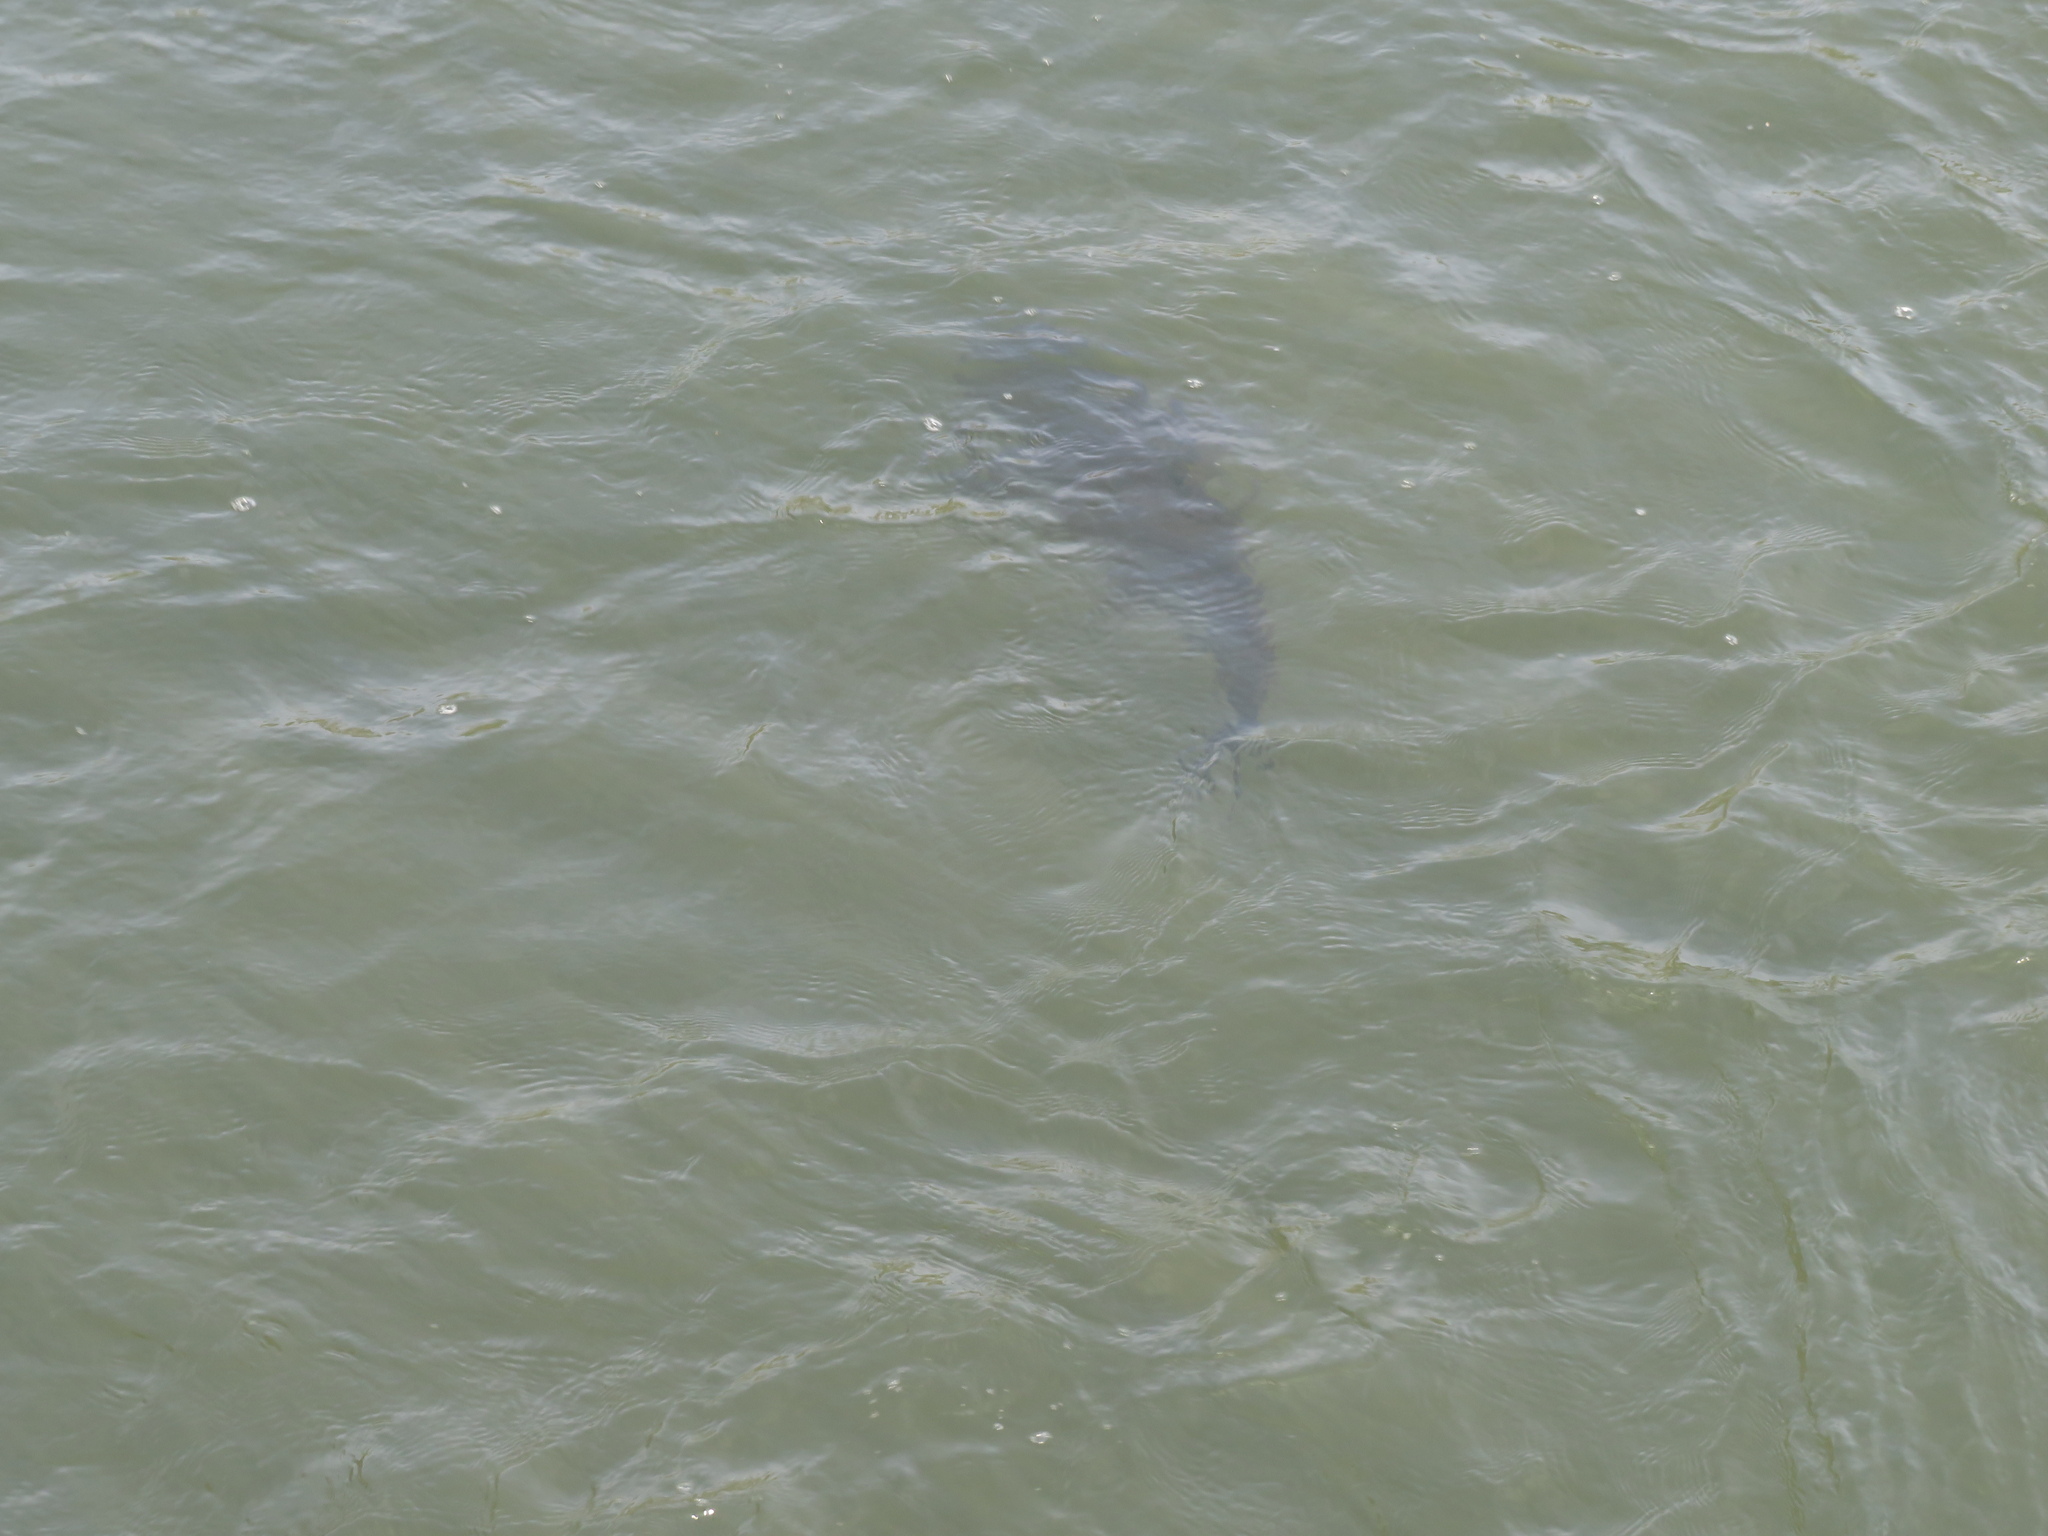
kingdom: Animalia
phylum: Chordata
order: Siluriformes
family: Pimelodidae
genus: Steindachneridion
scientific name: Steindachneridion melanodermatum
